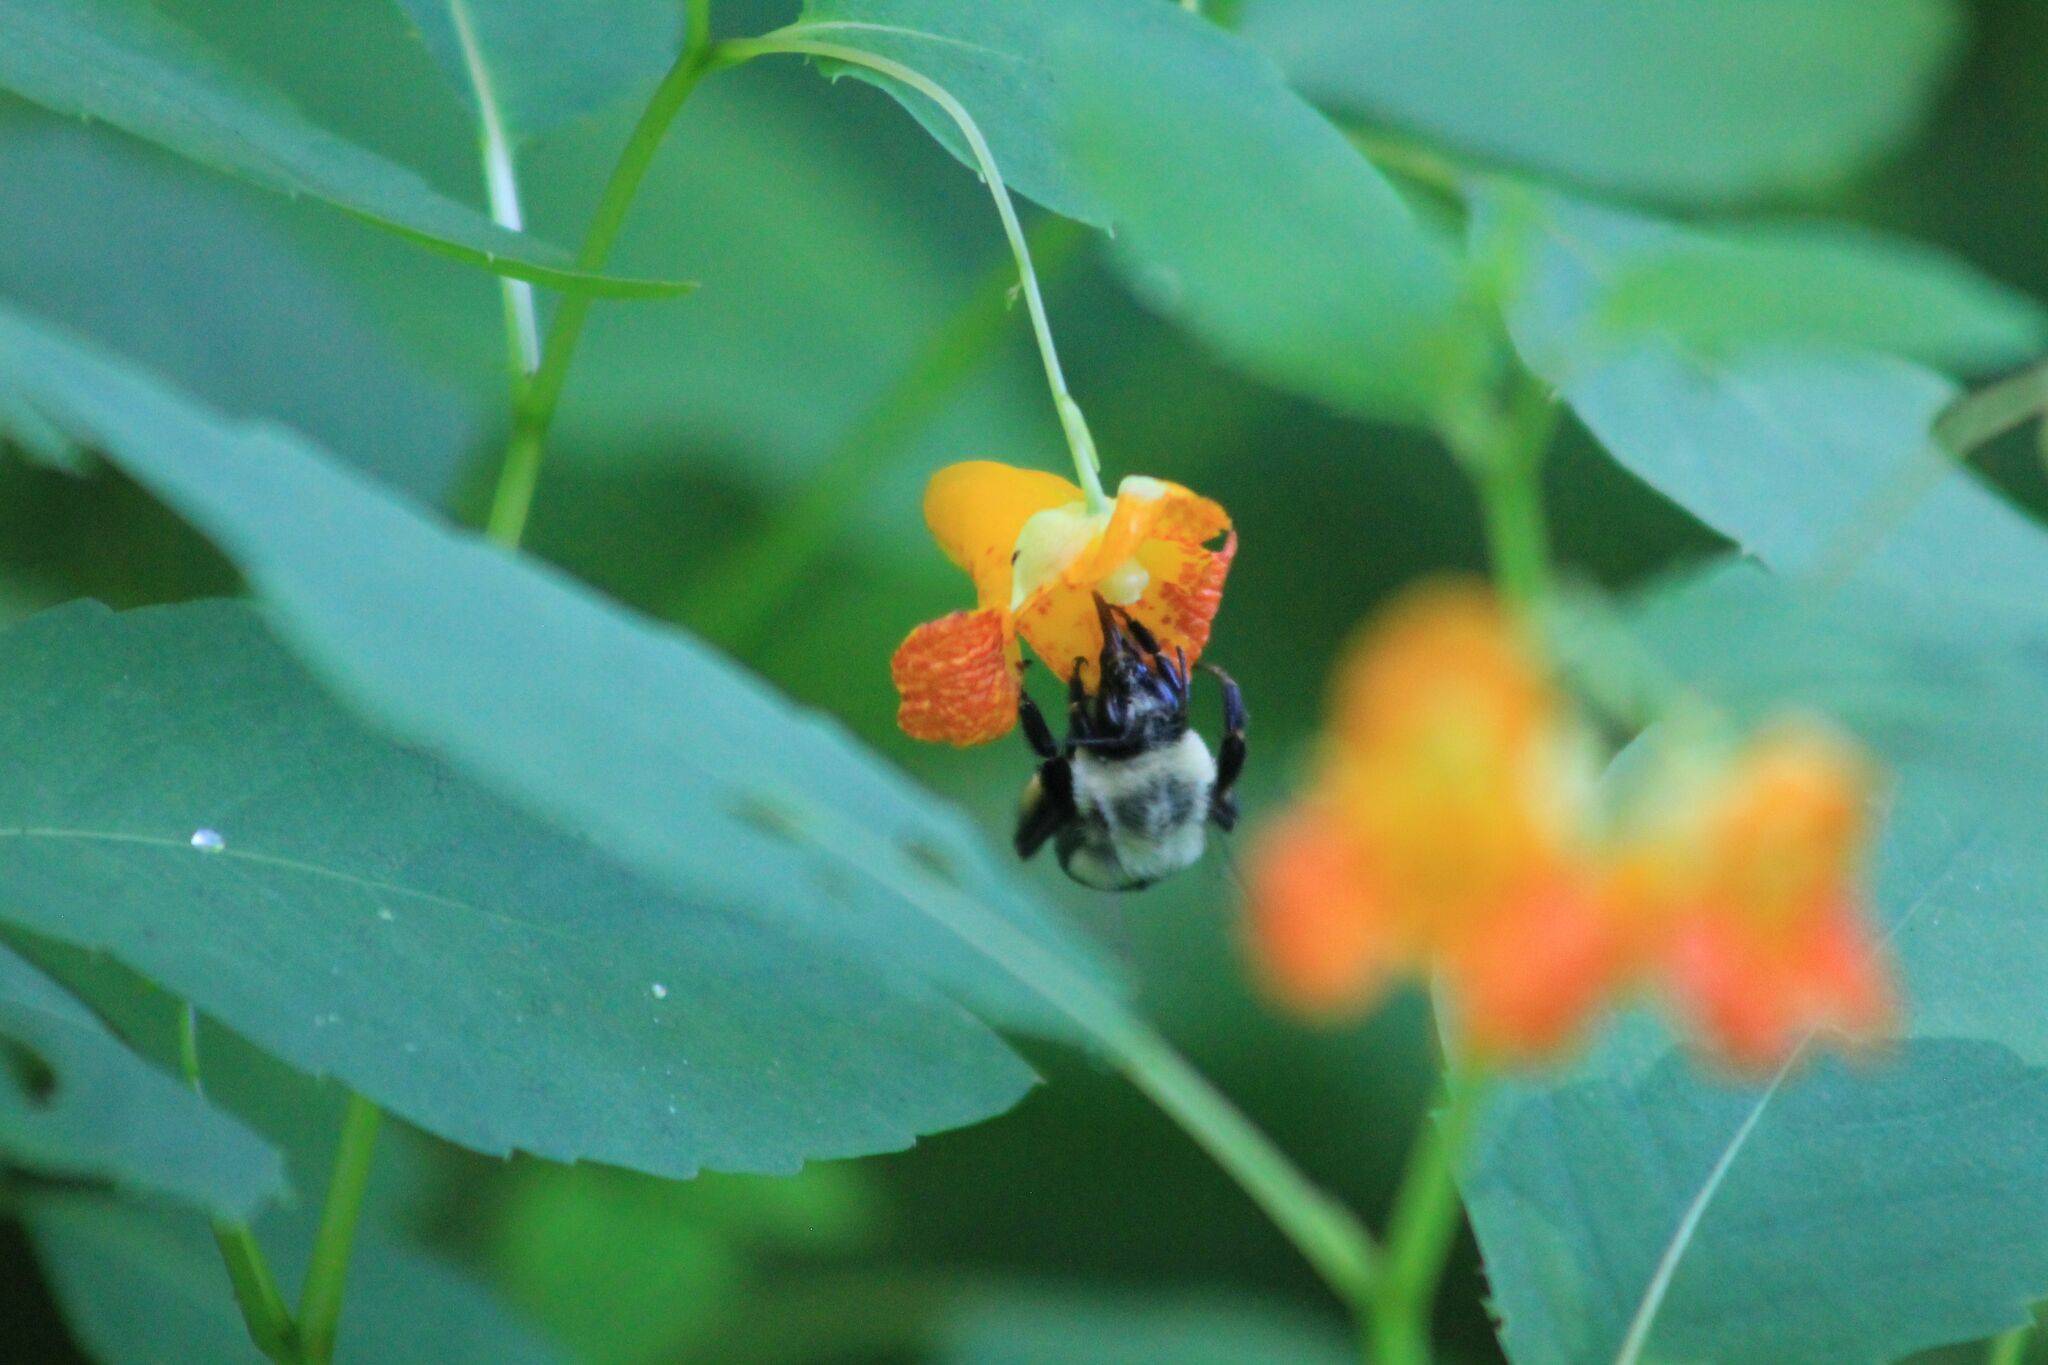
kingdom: Animalia
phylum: Arthropoda
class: Insecta
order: Hymenoptera
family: Apidae
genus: Bombus
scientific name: Bombus impatiens
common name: Common eastern bumble bee
